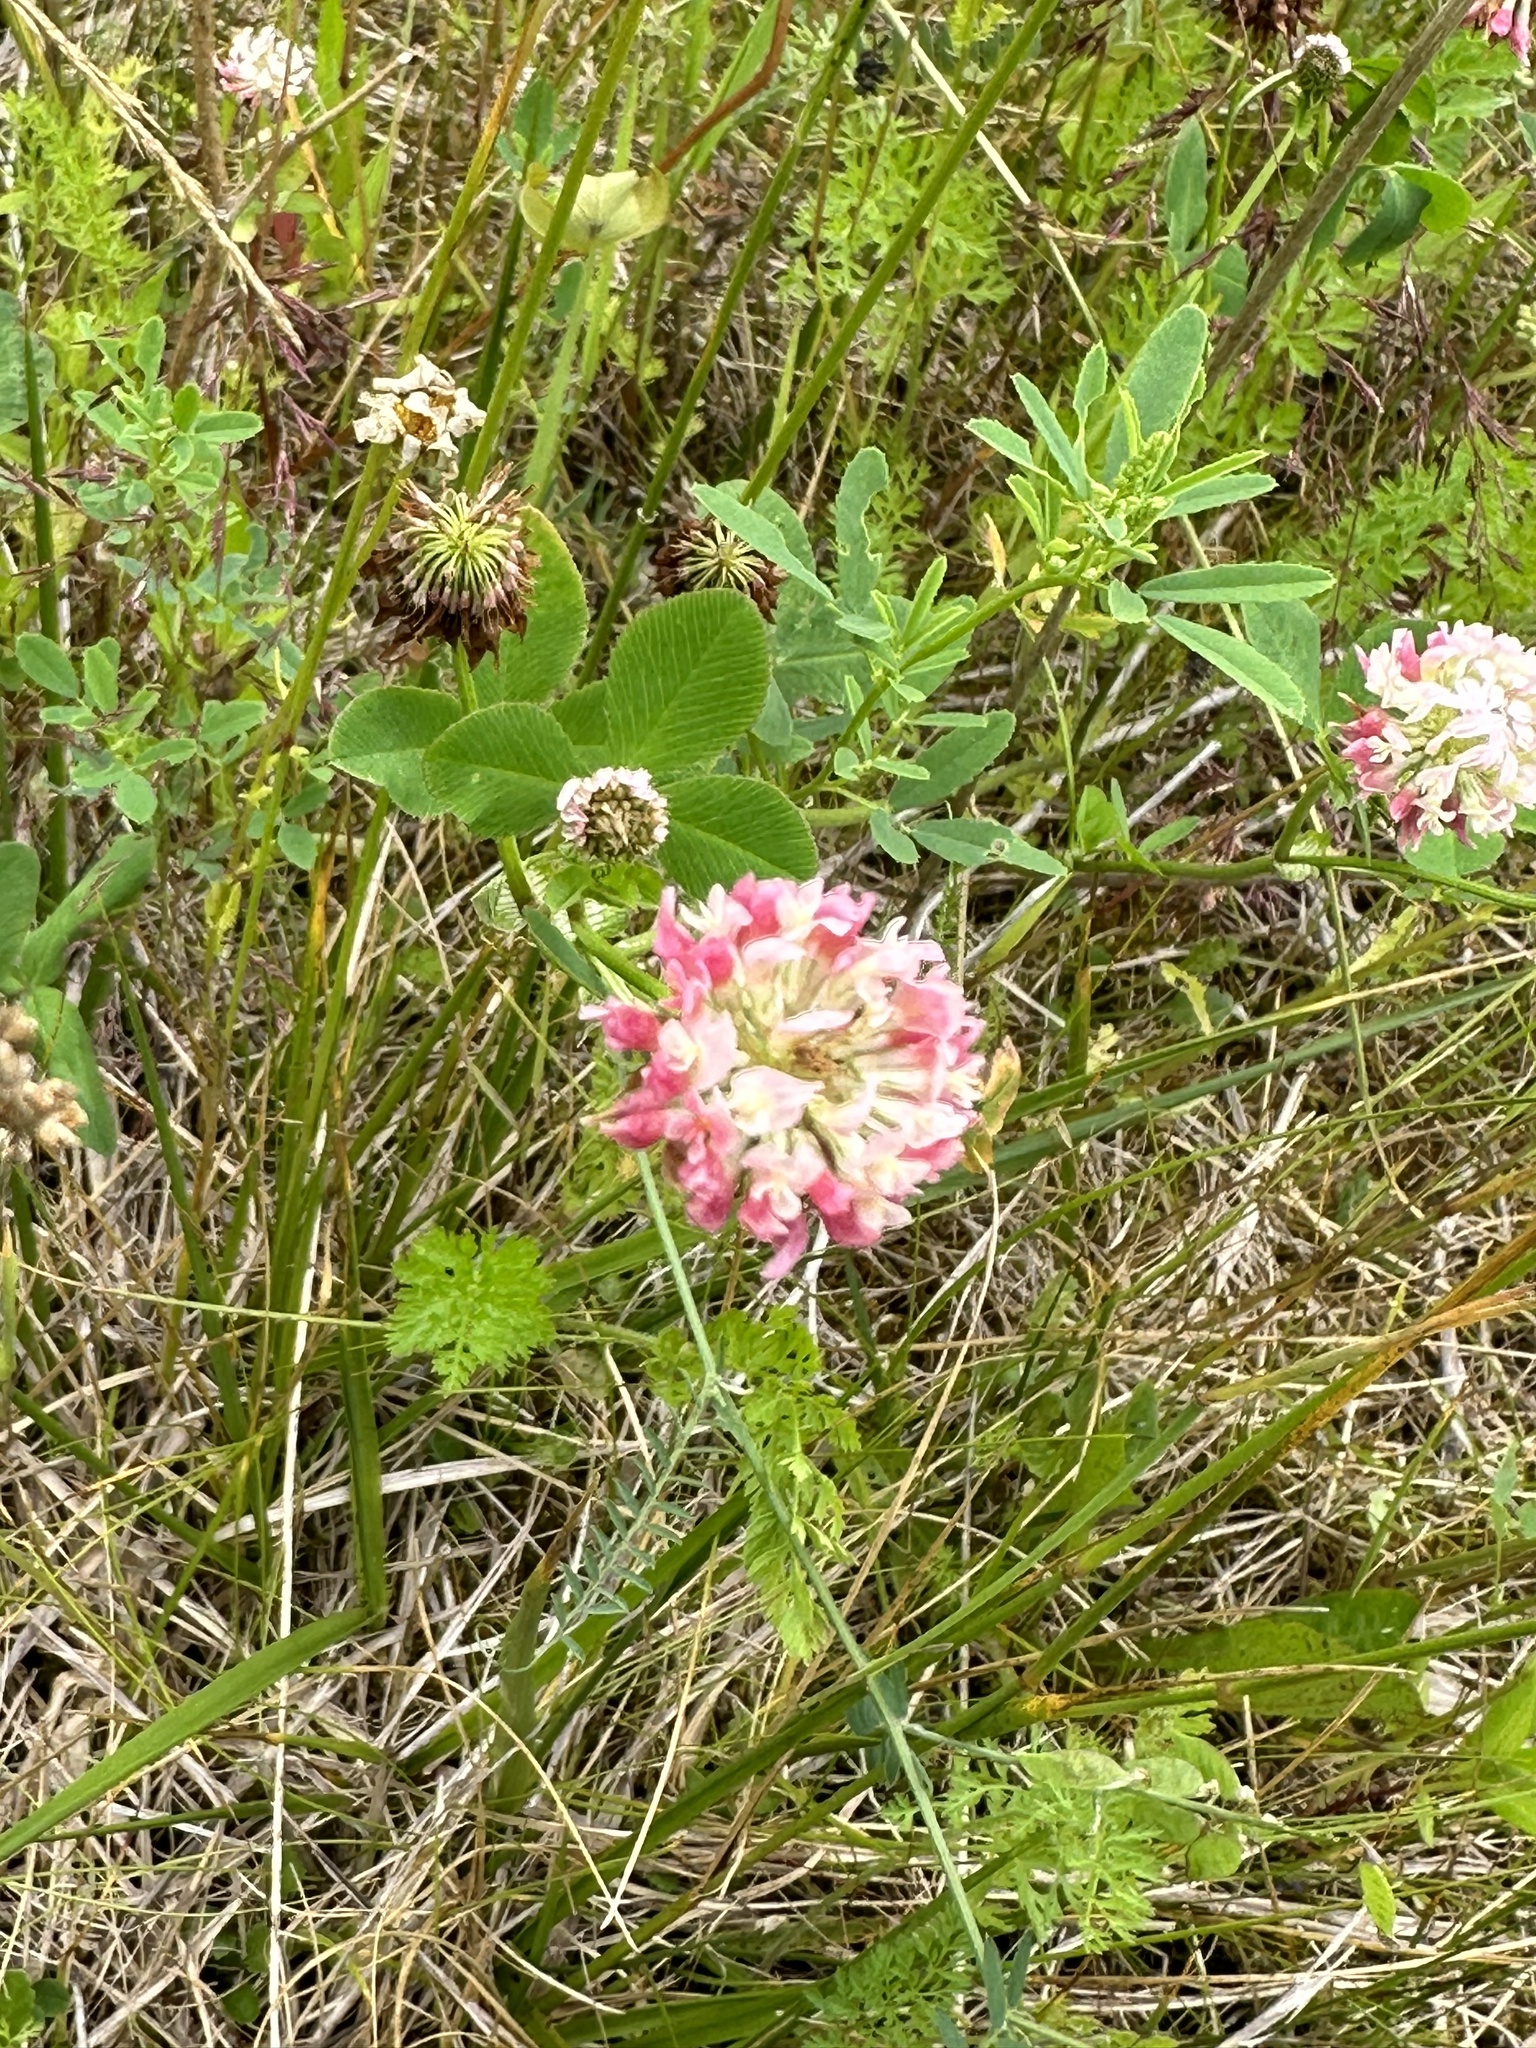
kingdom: Plantae
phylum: Tracheophyta
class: Magnoliopsida
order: Fabales
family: Fabaceae
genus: Trifolium
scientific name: Trifolium hybridum
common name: Alsike clover
